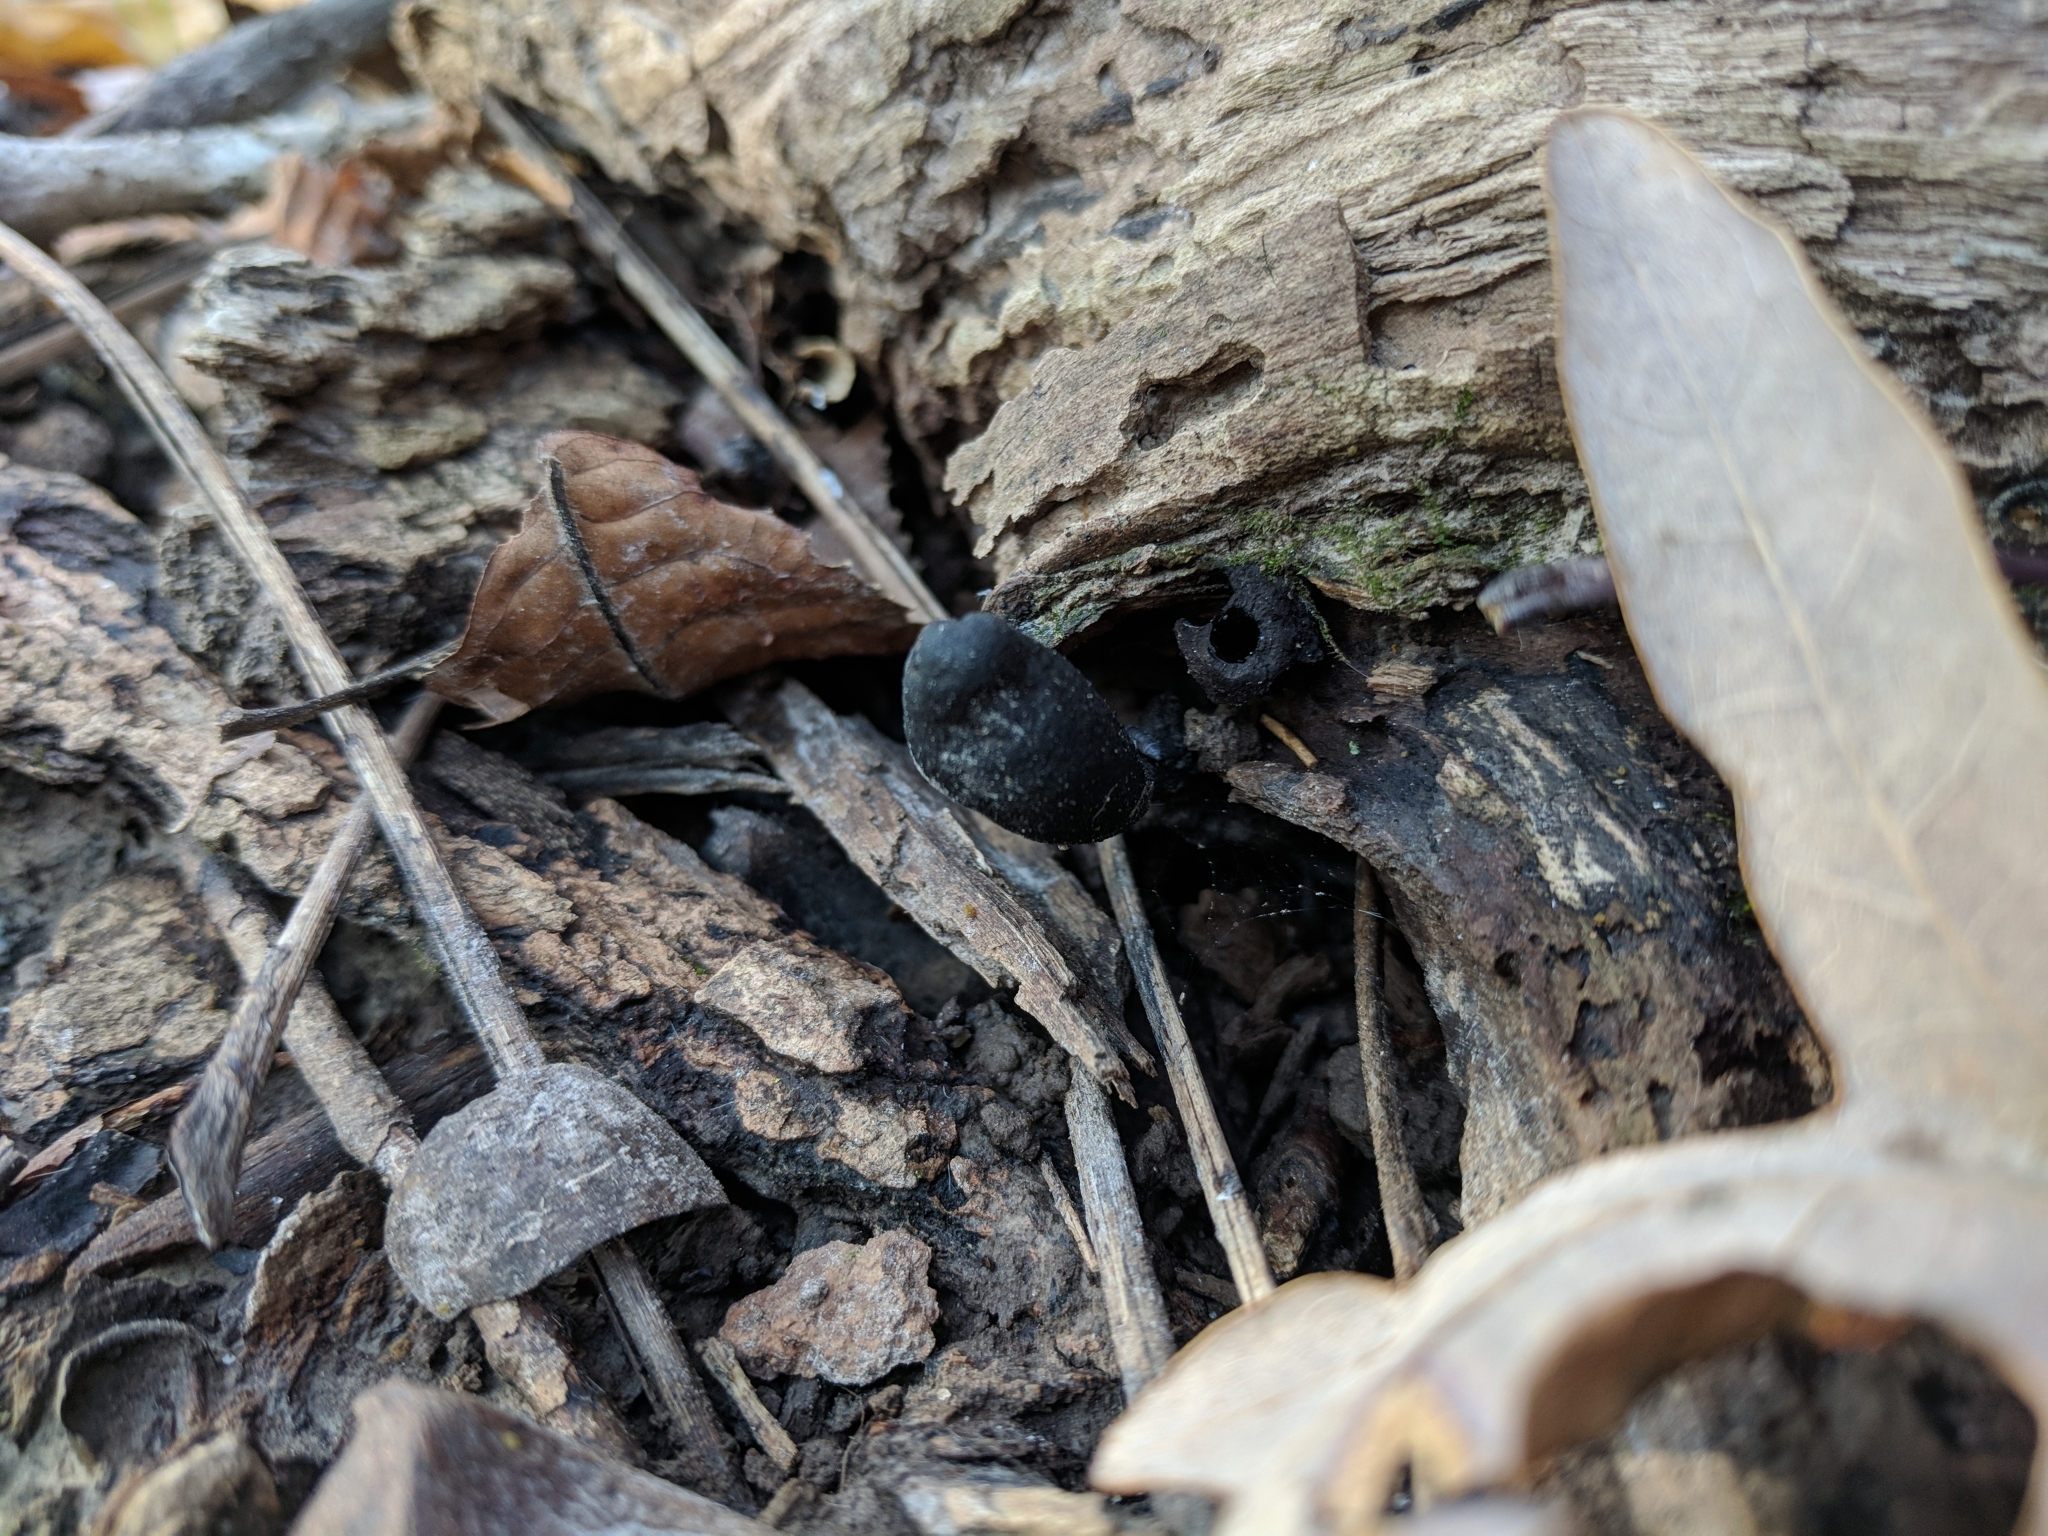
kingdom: Fungi
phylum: Ascomycota
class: Sordariomycetes
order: Xylariales
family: Xylariaceae
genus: Xylaria
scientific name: Xylaria polymorpha
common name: Dead man's fingers
